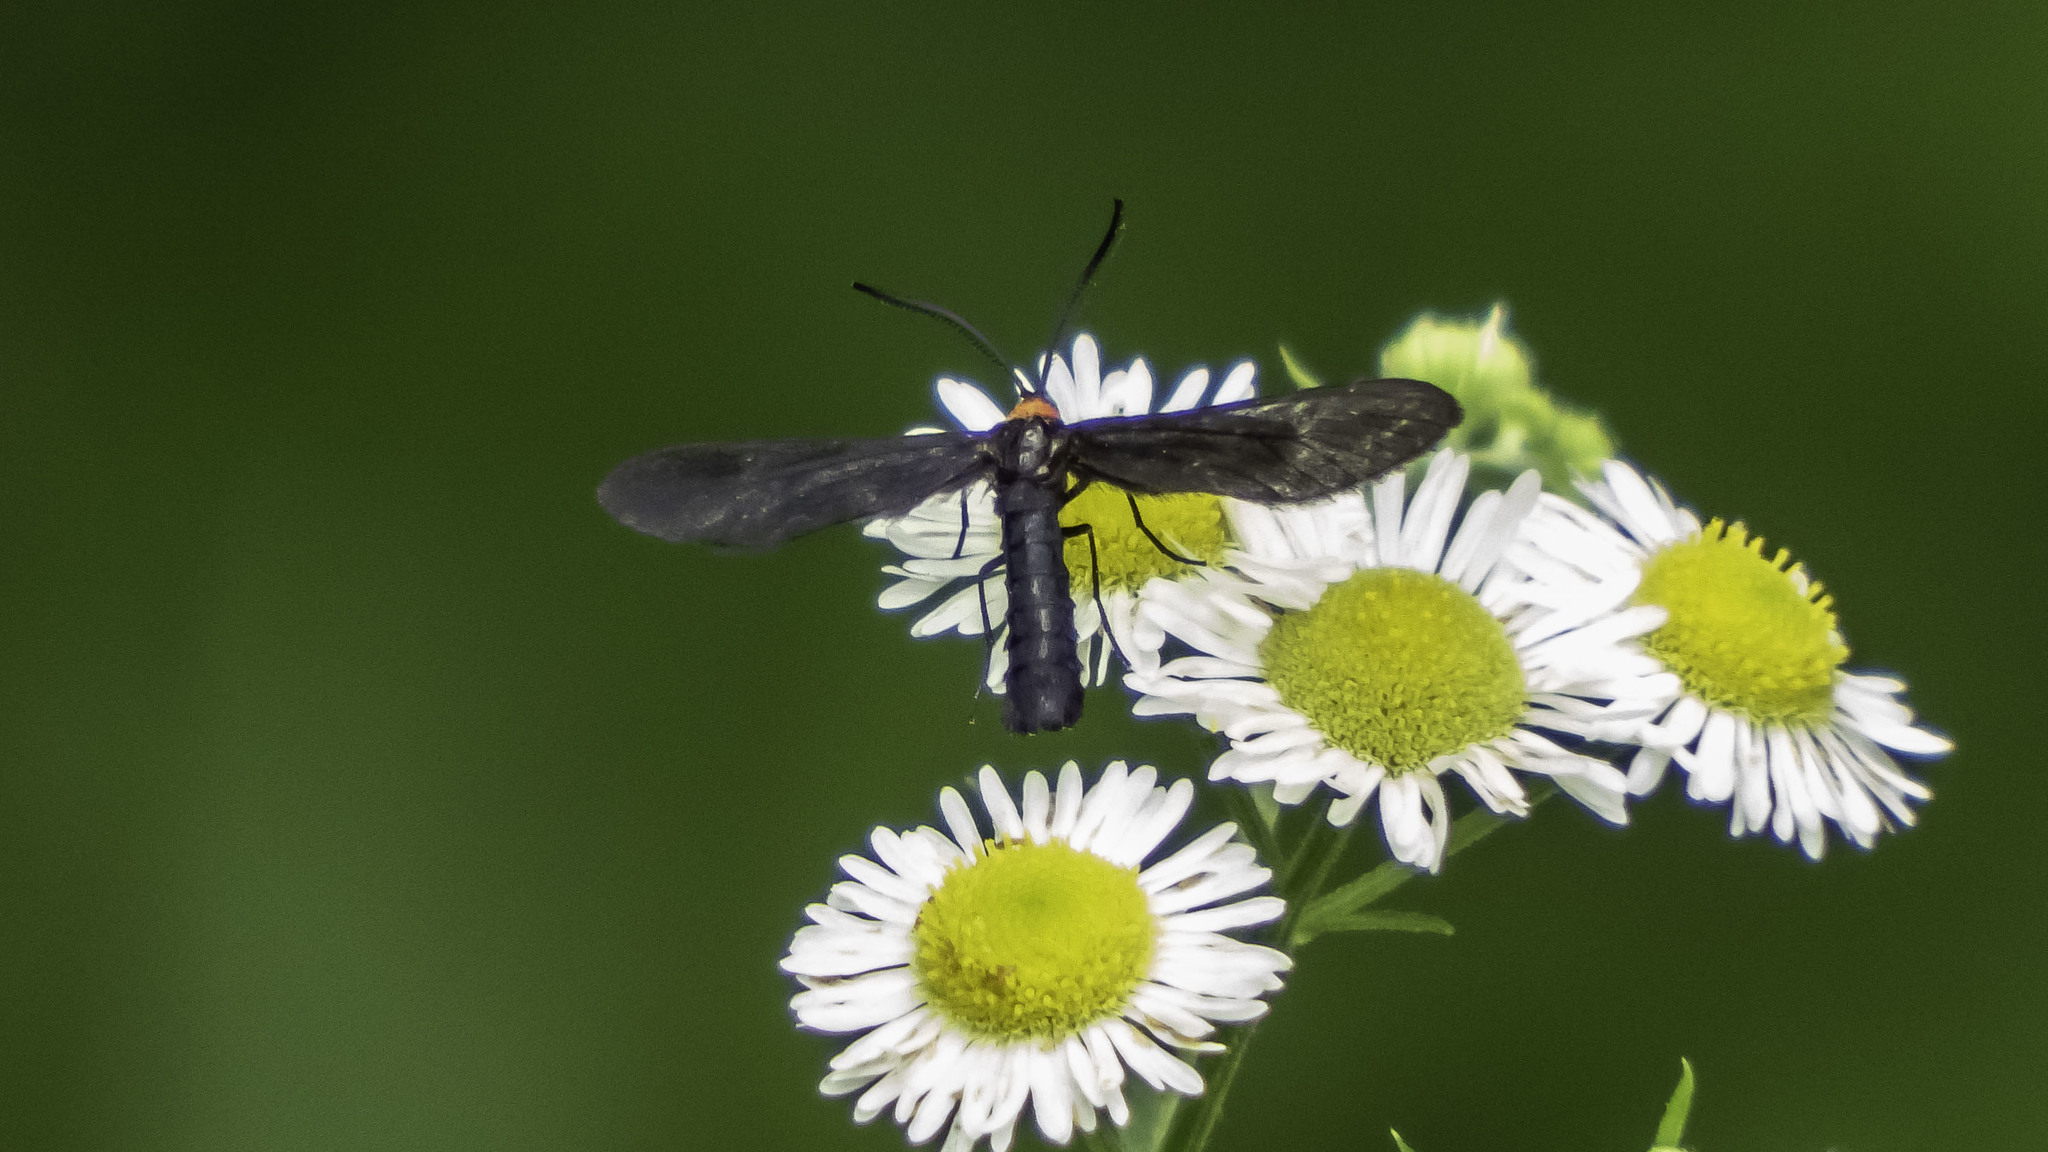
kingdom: Animalia
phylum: Arthropoda
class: Insecta
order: Lepidoptera
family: Zygaenidae
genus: Harrisina
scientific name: Harrisina americana
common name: Grapeleaf skeletonizer moth
